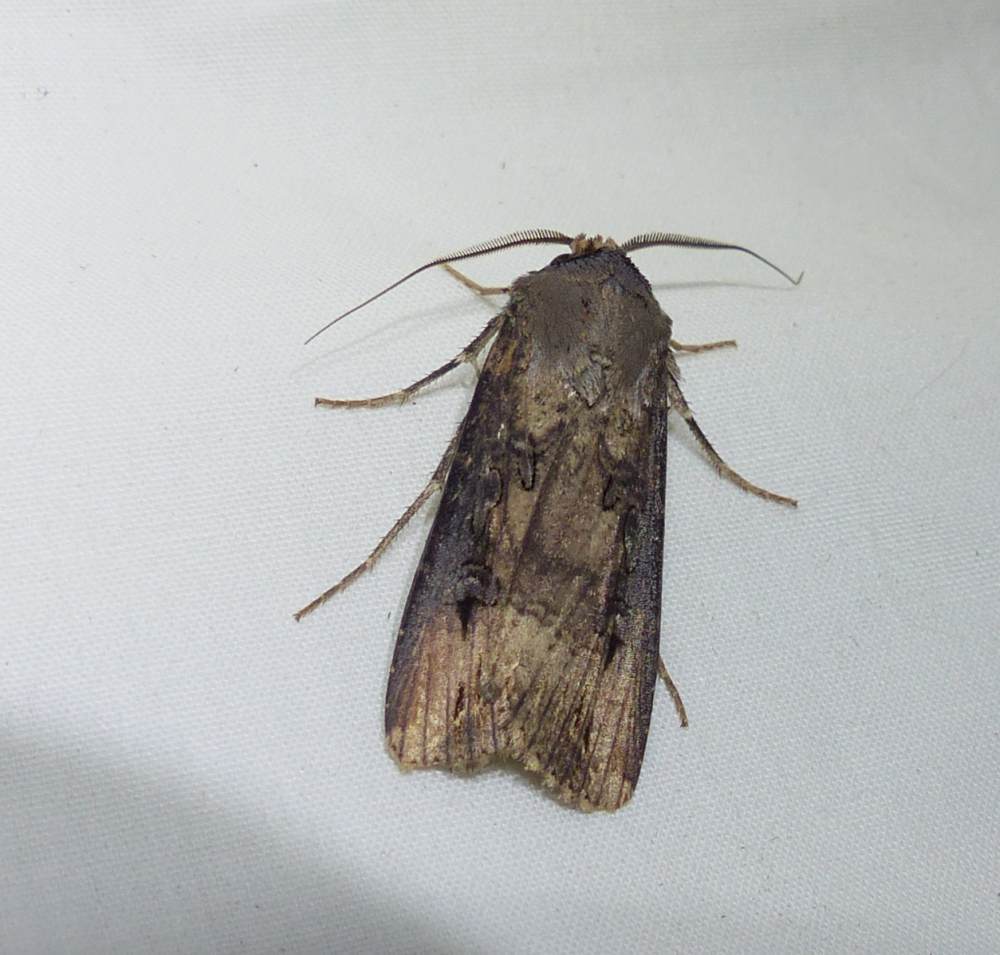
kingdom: Animalia
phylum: Arthropoda
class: Insecta
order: Lepidoptera
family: Noctuidae
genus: Agrotis
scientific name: Agrotis ipsilon
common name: Dark sword-grass
